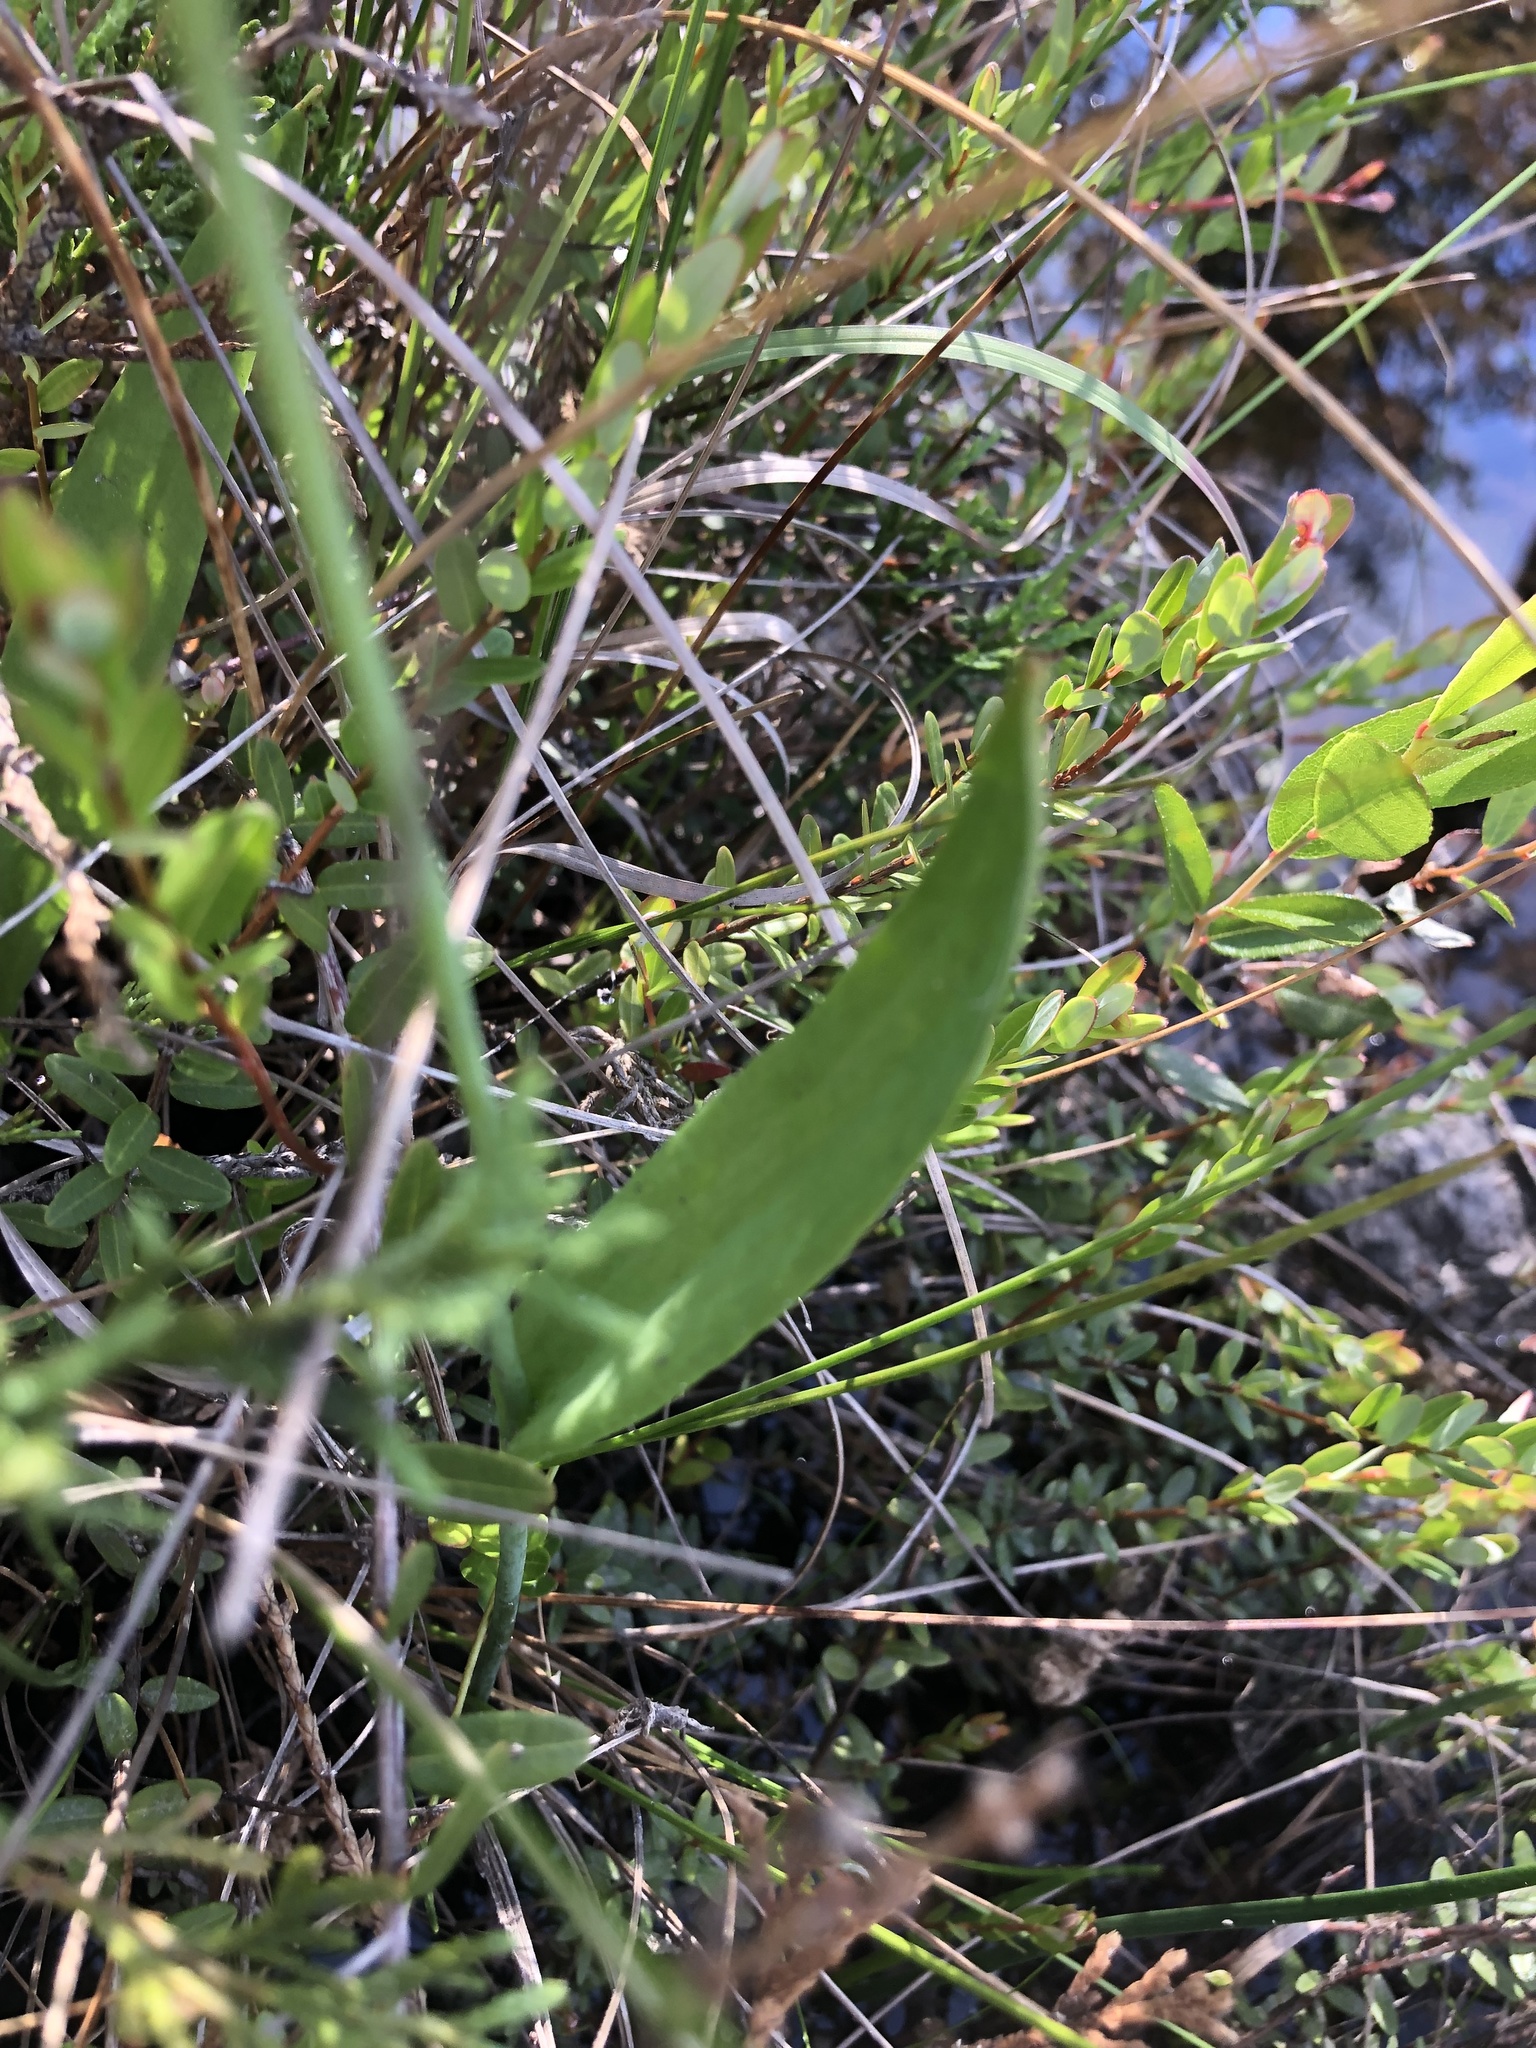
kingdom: Plantae
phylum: Tracheophyta
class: Liliopsida
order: Asparagales
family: Orchidaceae
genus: Pogonia
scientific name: Pogonia ophioglossoides
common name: Rose pogonia
